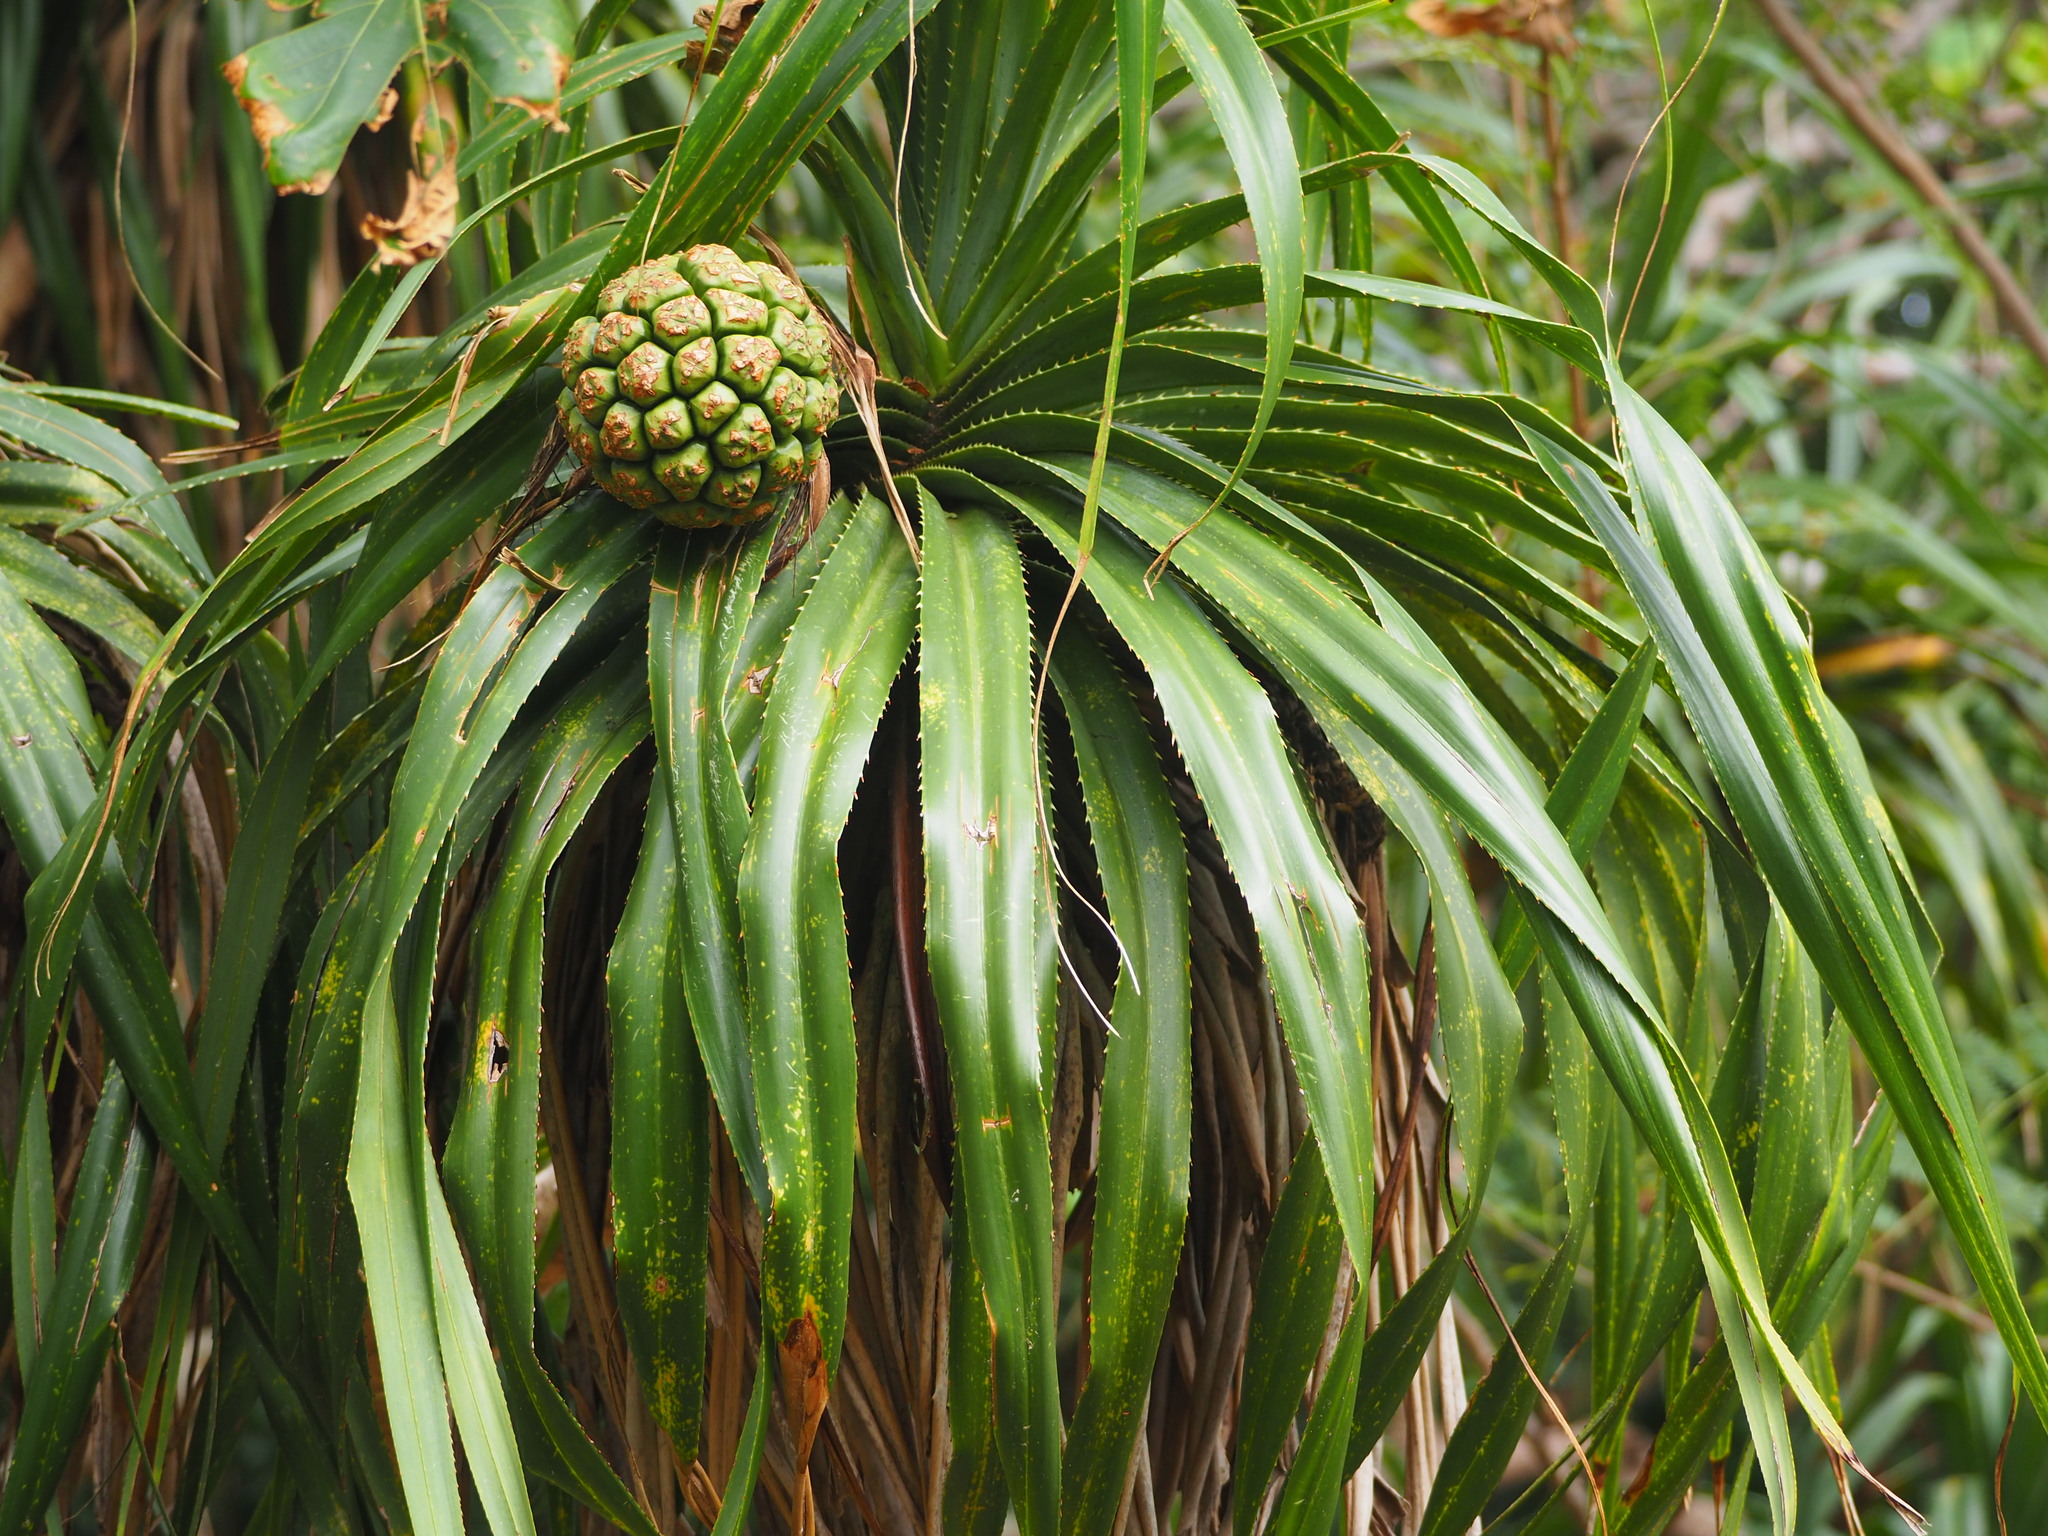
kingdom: Plantae
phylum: Tracheophyta
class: Liliopsida
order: Pandanales
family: Pandanaceae
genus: Pandanus
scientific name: Pandanus odorifer
